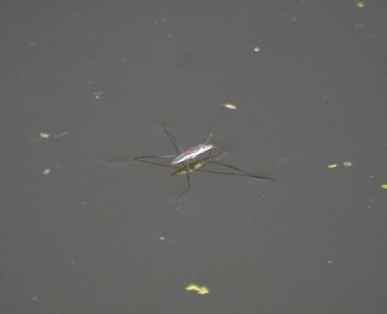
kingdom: Animalia
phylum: Arthropoda
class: Insecta
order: Hemiptera
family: Gerridae
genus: Aquarius
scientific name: Aquarius adelaidis
